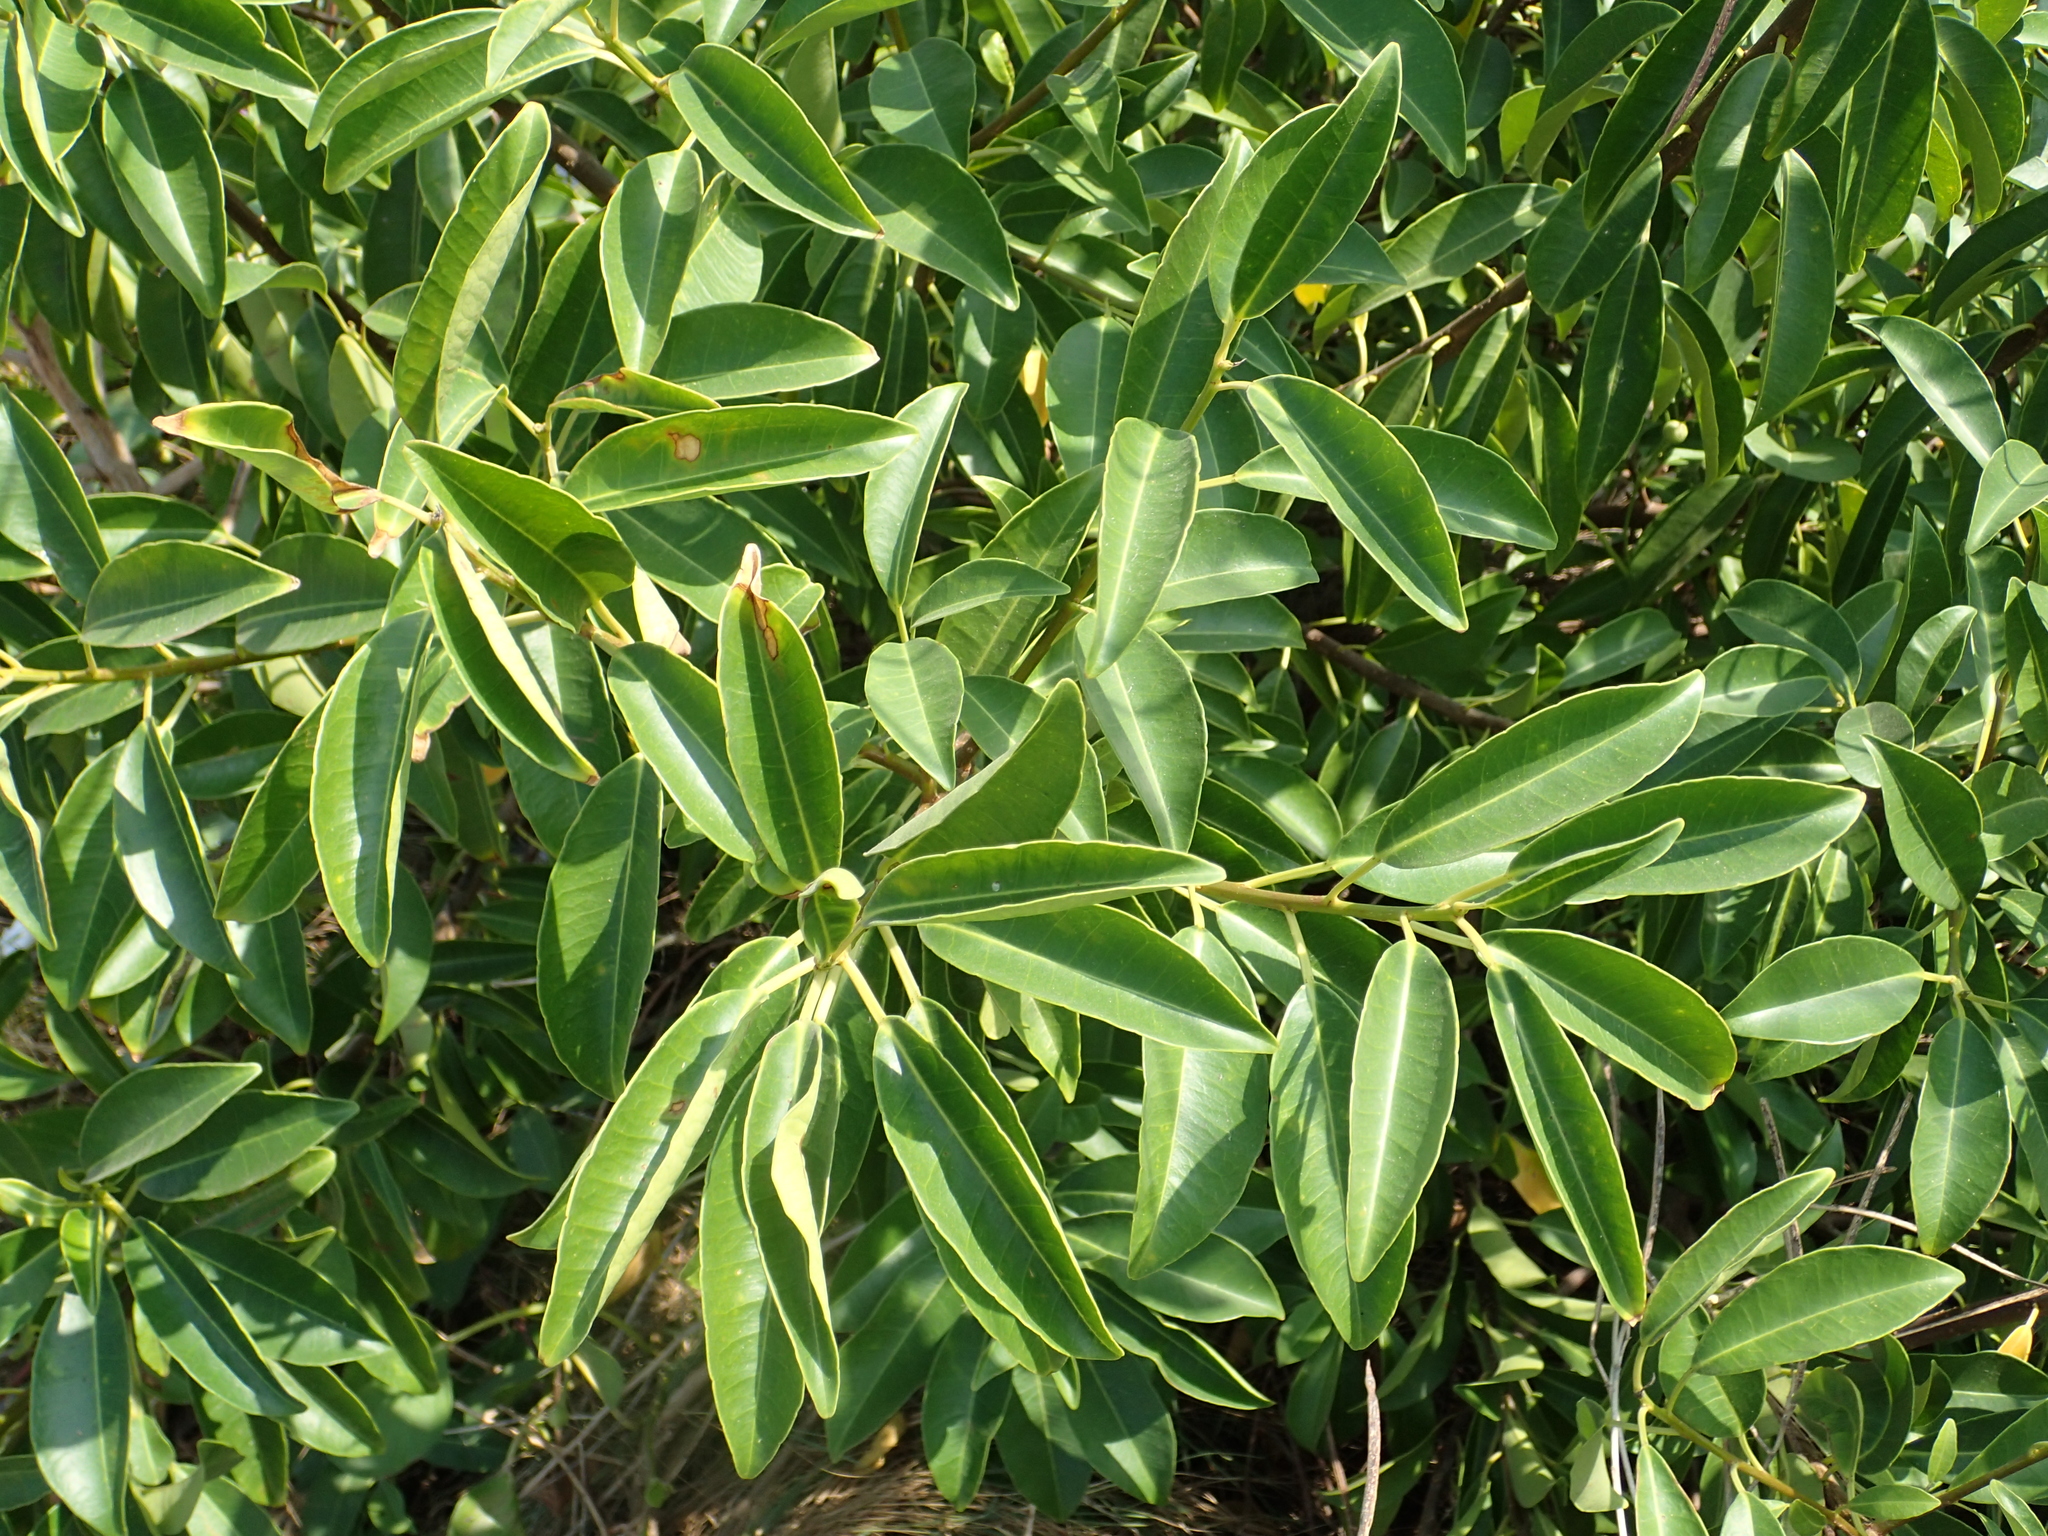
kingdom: Plantae
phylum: Tracheophyta
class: Magnoliopsida
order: Malpighiales
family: Euphorbiaceae
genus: Excoecaria
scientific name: Excoecaria agallocha
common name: River poisontree
